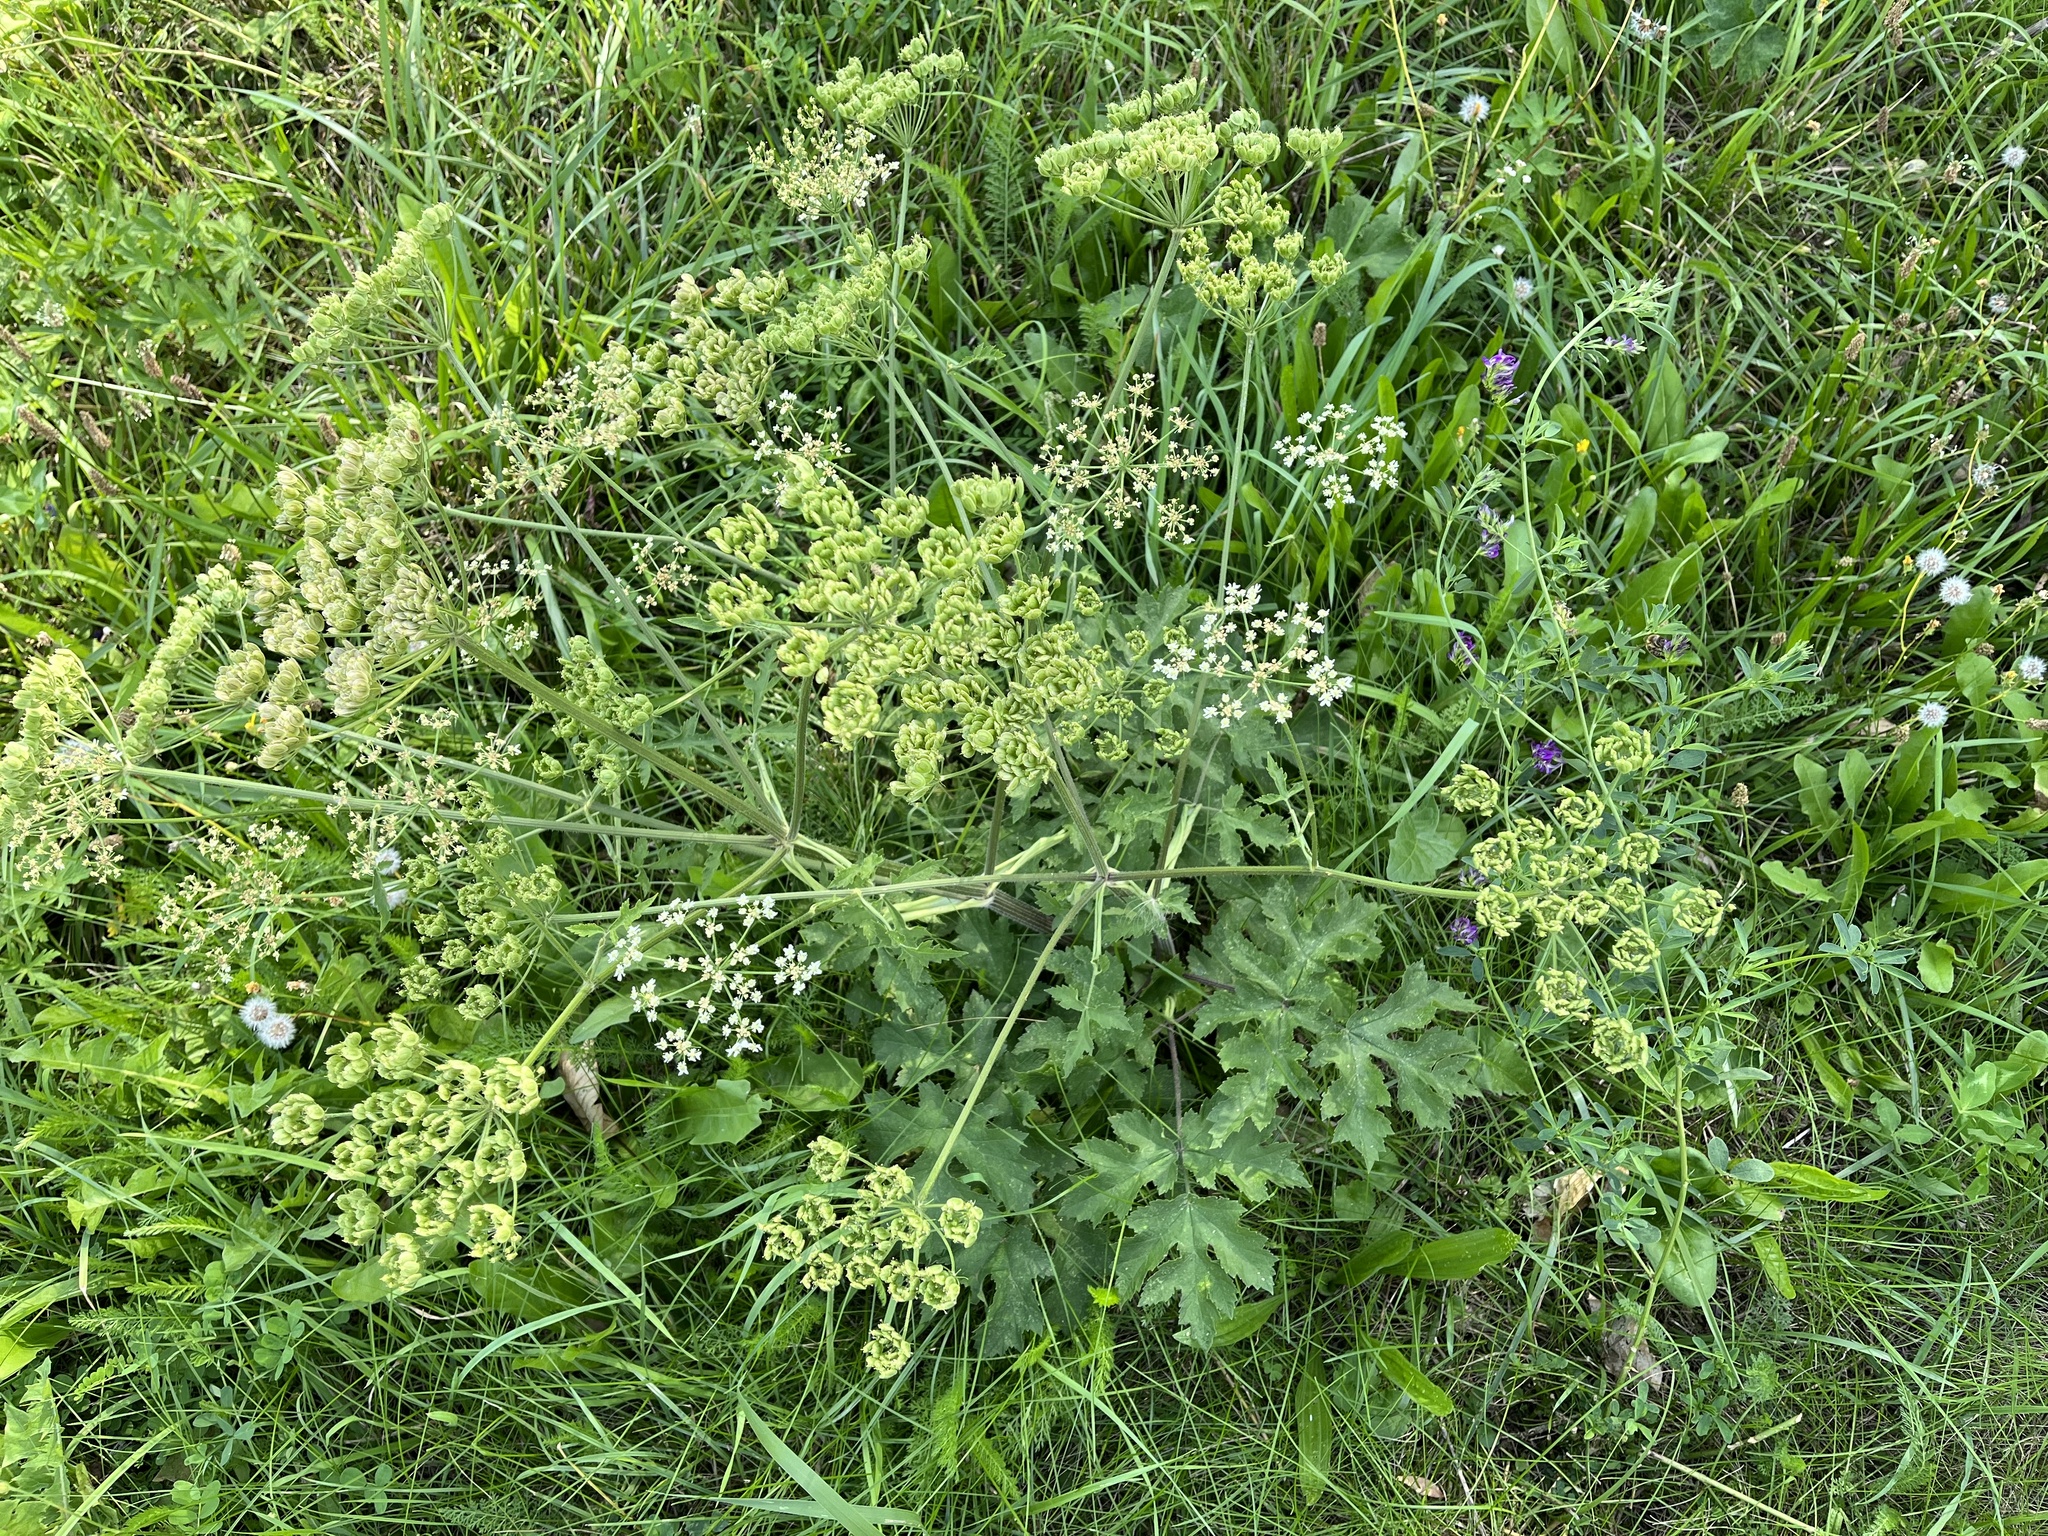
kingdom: Plantae
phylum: Tracheophyta
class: Magnoliopsida
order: Apiales
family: Apiaceae
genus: Heracleum
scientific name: Heracleum sphondylium
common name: Hogweed
